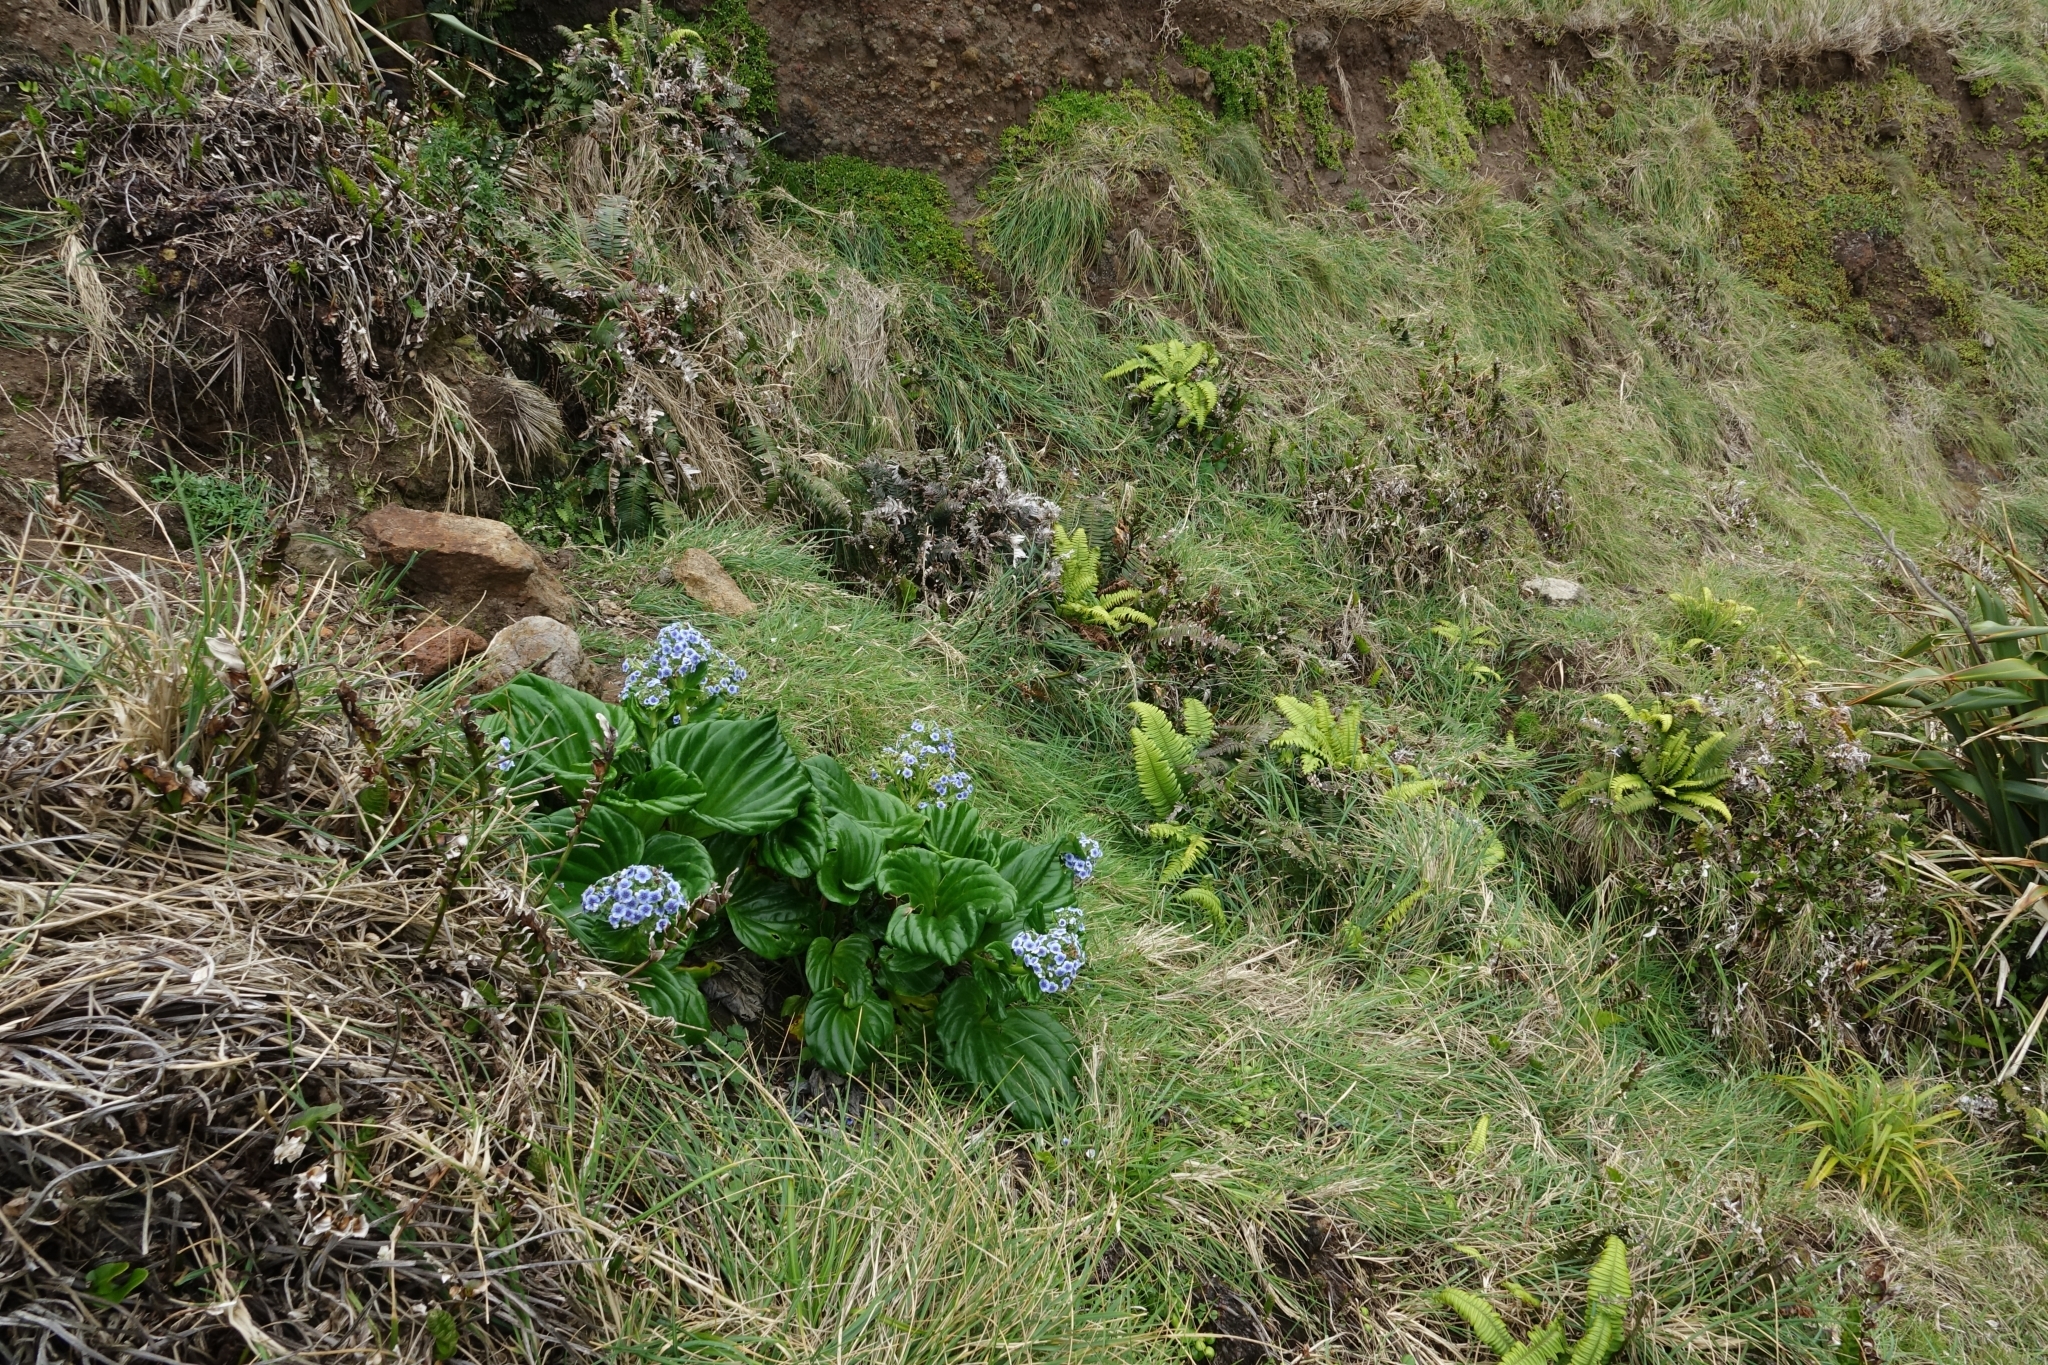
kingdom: Plantae
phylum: Tracheophyta
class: Magnoliopsida
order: Boraginales
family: Boraginaceae
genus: Myosotidium
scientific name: Myosotidium hortensia
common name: Giant forget-me-not
